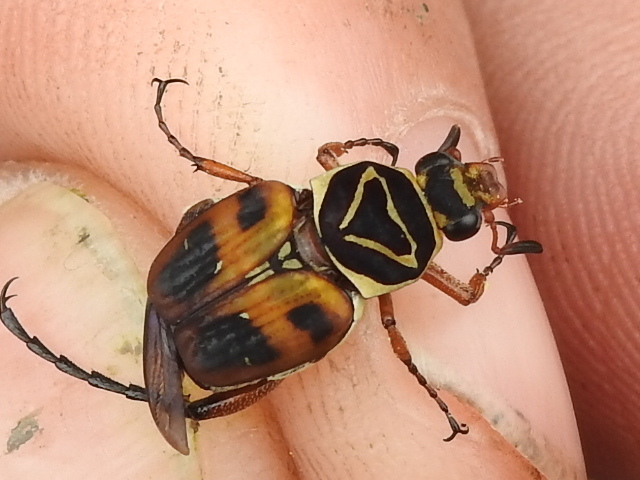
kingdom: Animalia
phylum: Arthropoda
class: Insecta
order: Coleoptera
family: Scarabaeidae
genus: Trigonopeltastes
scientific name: Trigonopeltastes delta
